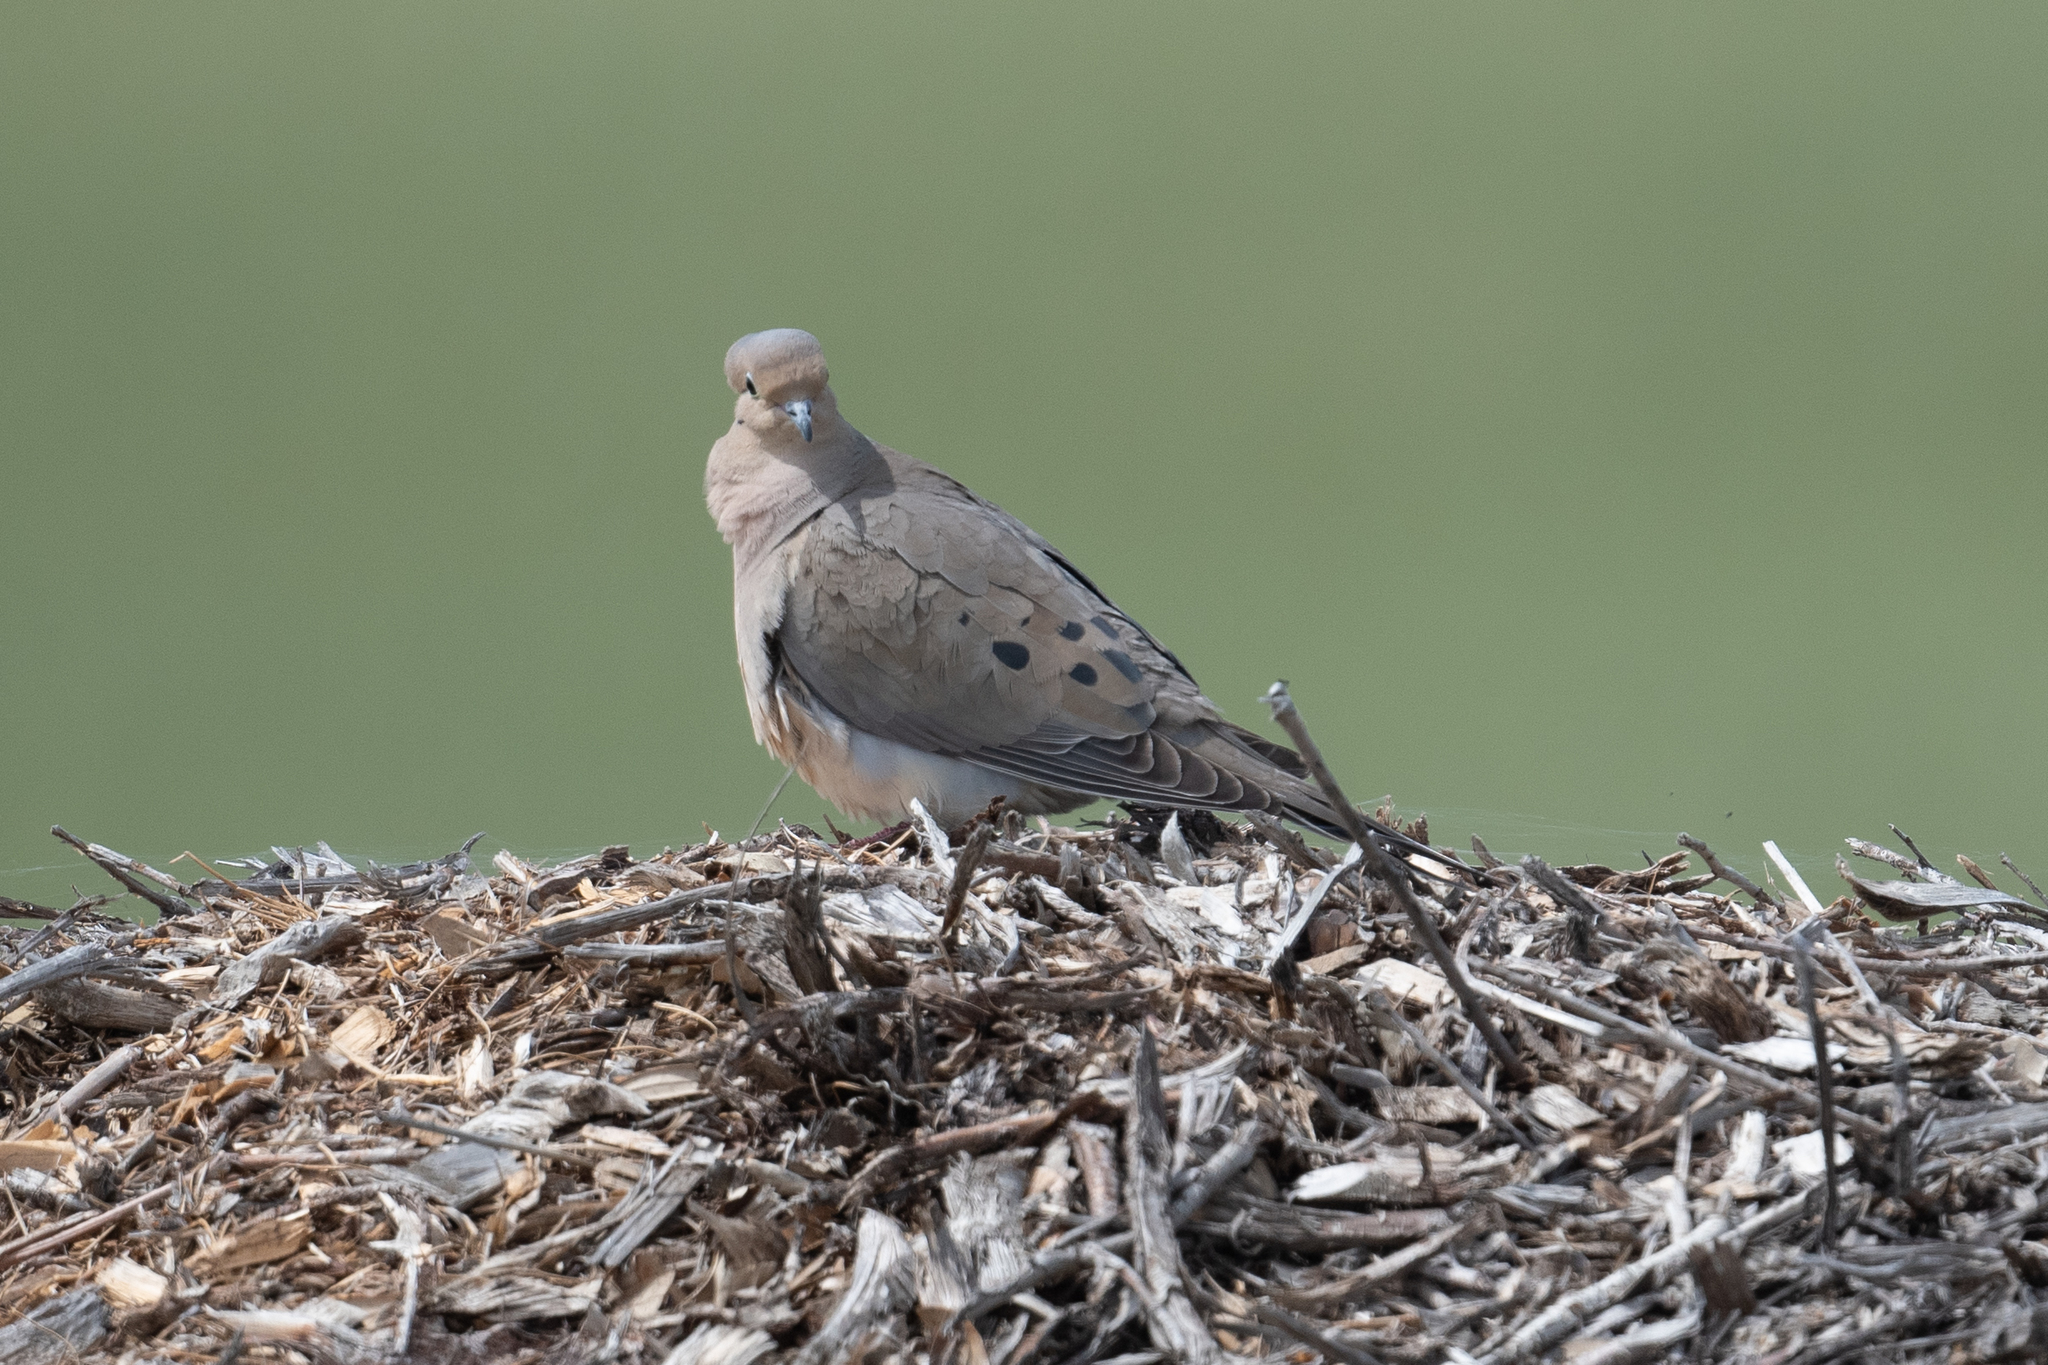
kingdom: Animalia
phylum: Chordata
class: Aves
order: Columbiformes
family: Columbidae
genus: Zenaida
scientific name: Zenaida macroura
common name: Mourning dove
